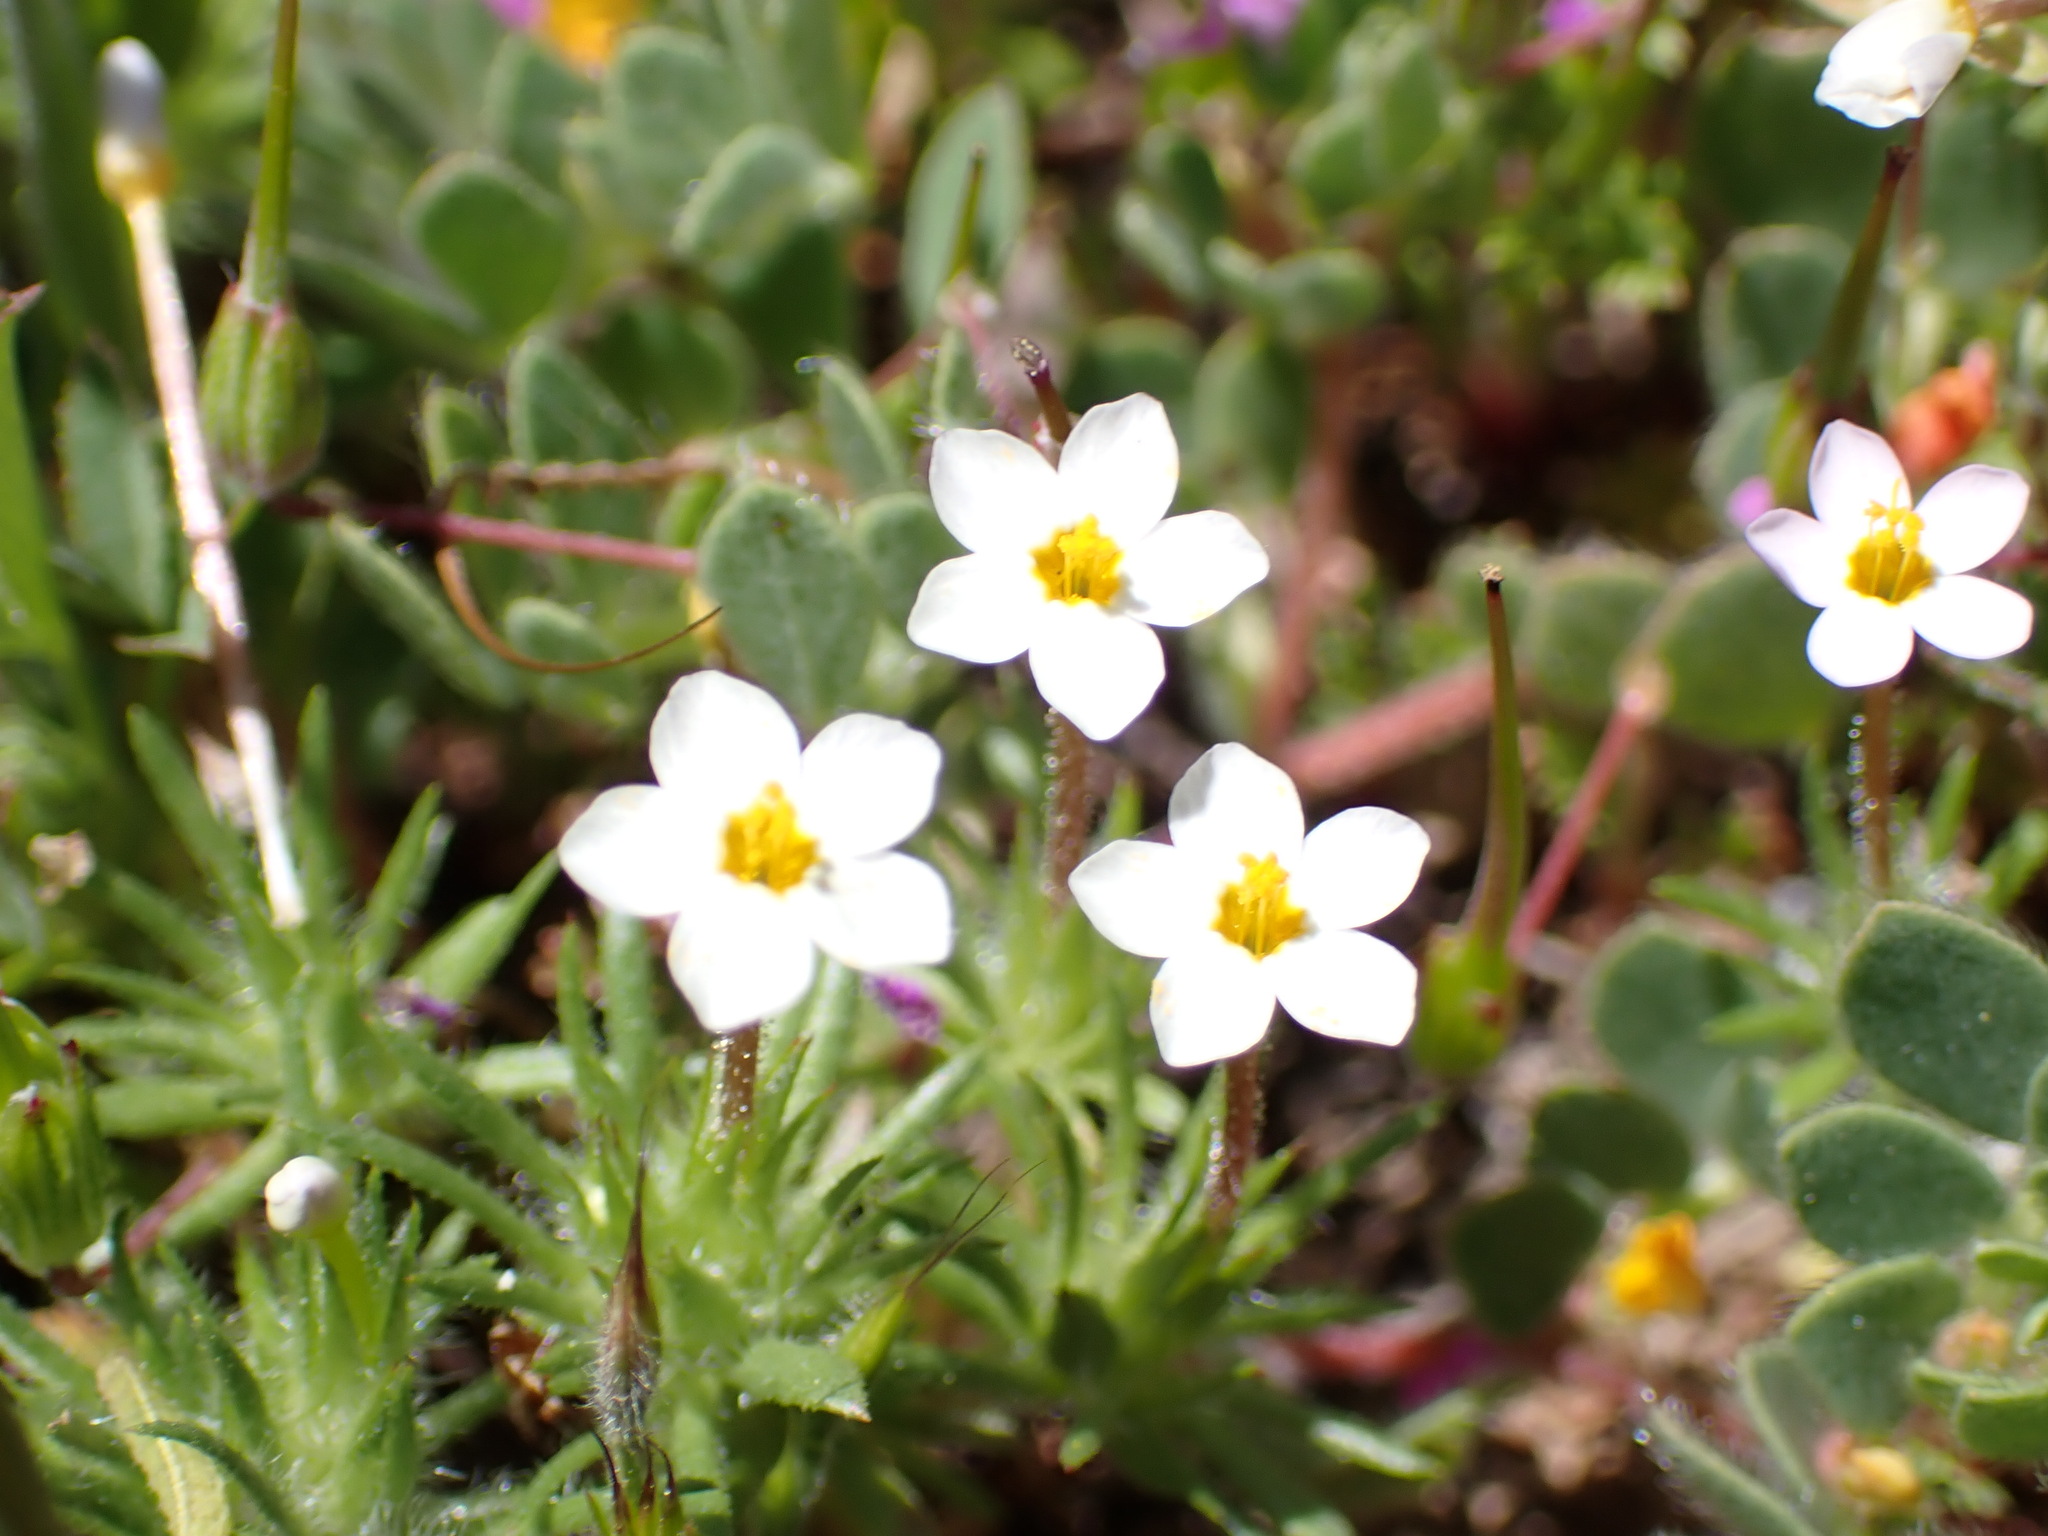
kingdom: Plantae
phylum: Tracheophyta
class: Magnoliopsida
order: Ericales
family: Polemoniaceae
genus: Leptosiphon
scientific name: Leptosiphon bicolor
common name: True babystars
